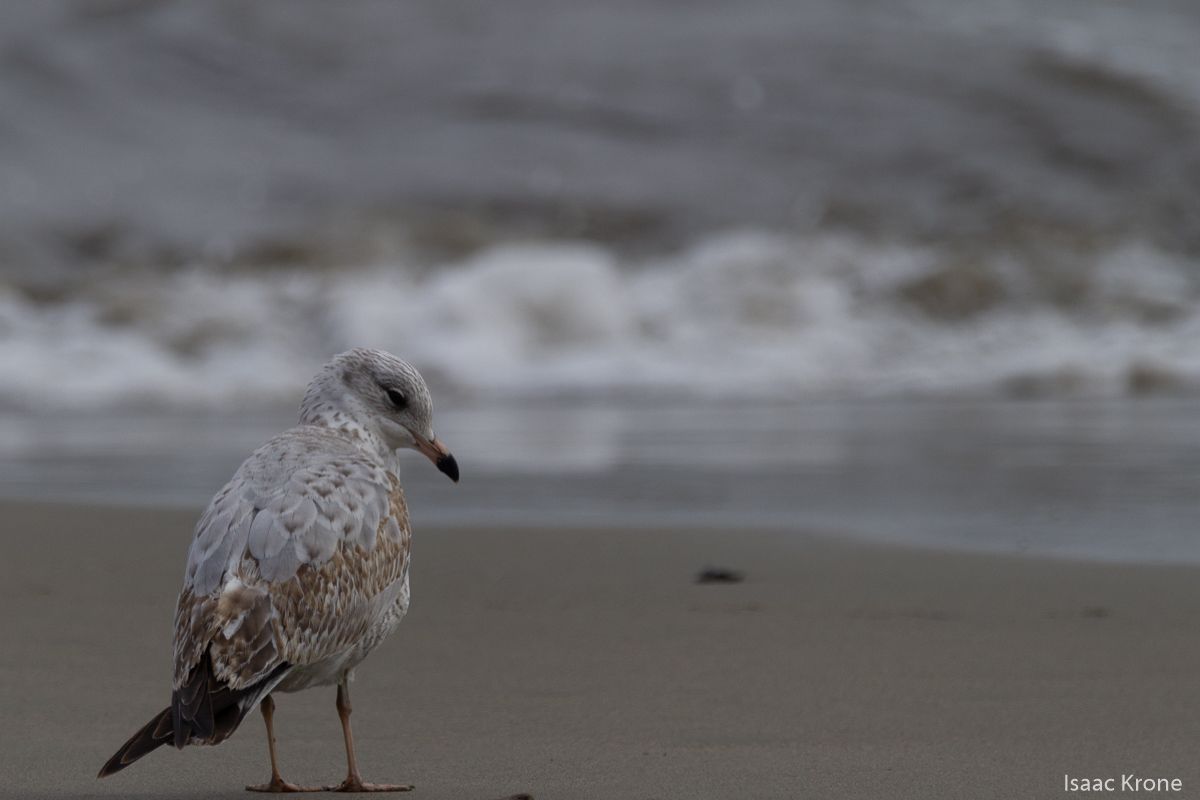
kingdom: Animalia
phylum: Chordata
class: Aves
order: Charadriiformes
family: Laridae
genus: Larus
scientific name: Larus delawarensis
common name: Ring-billed gull
